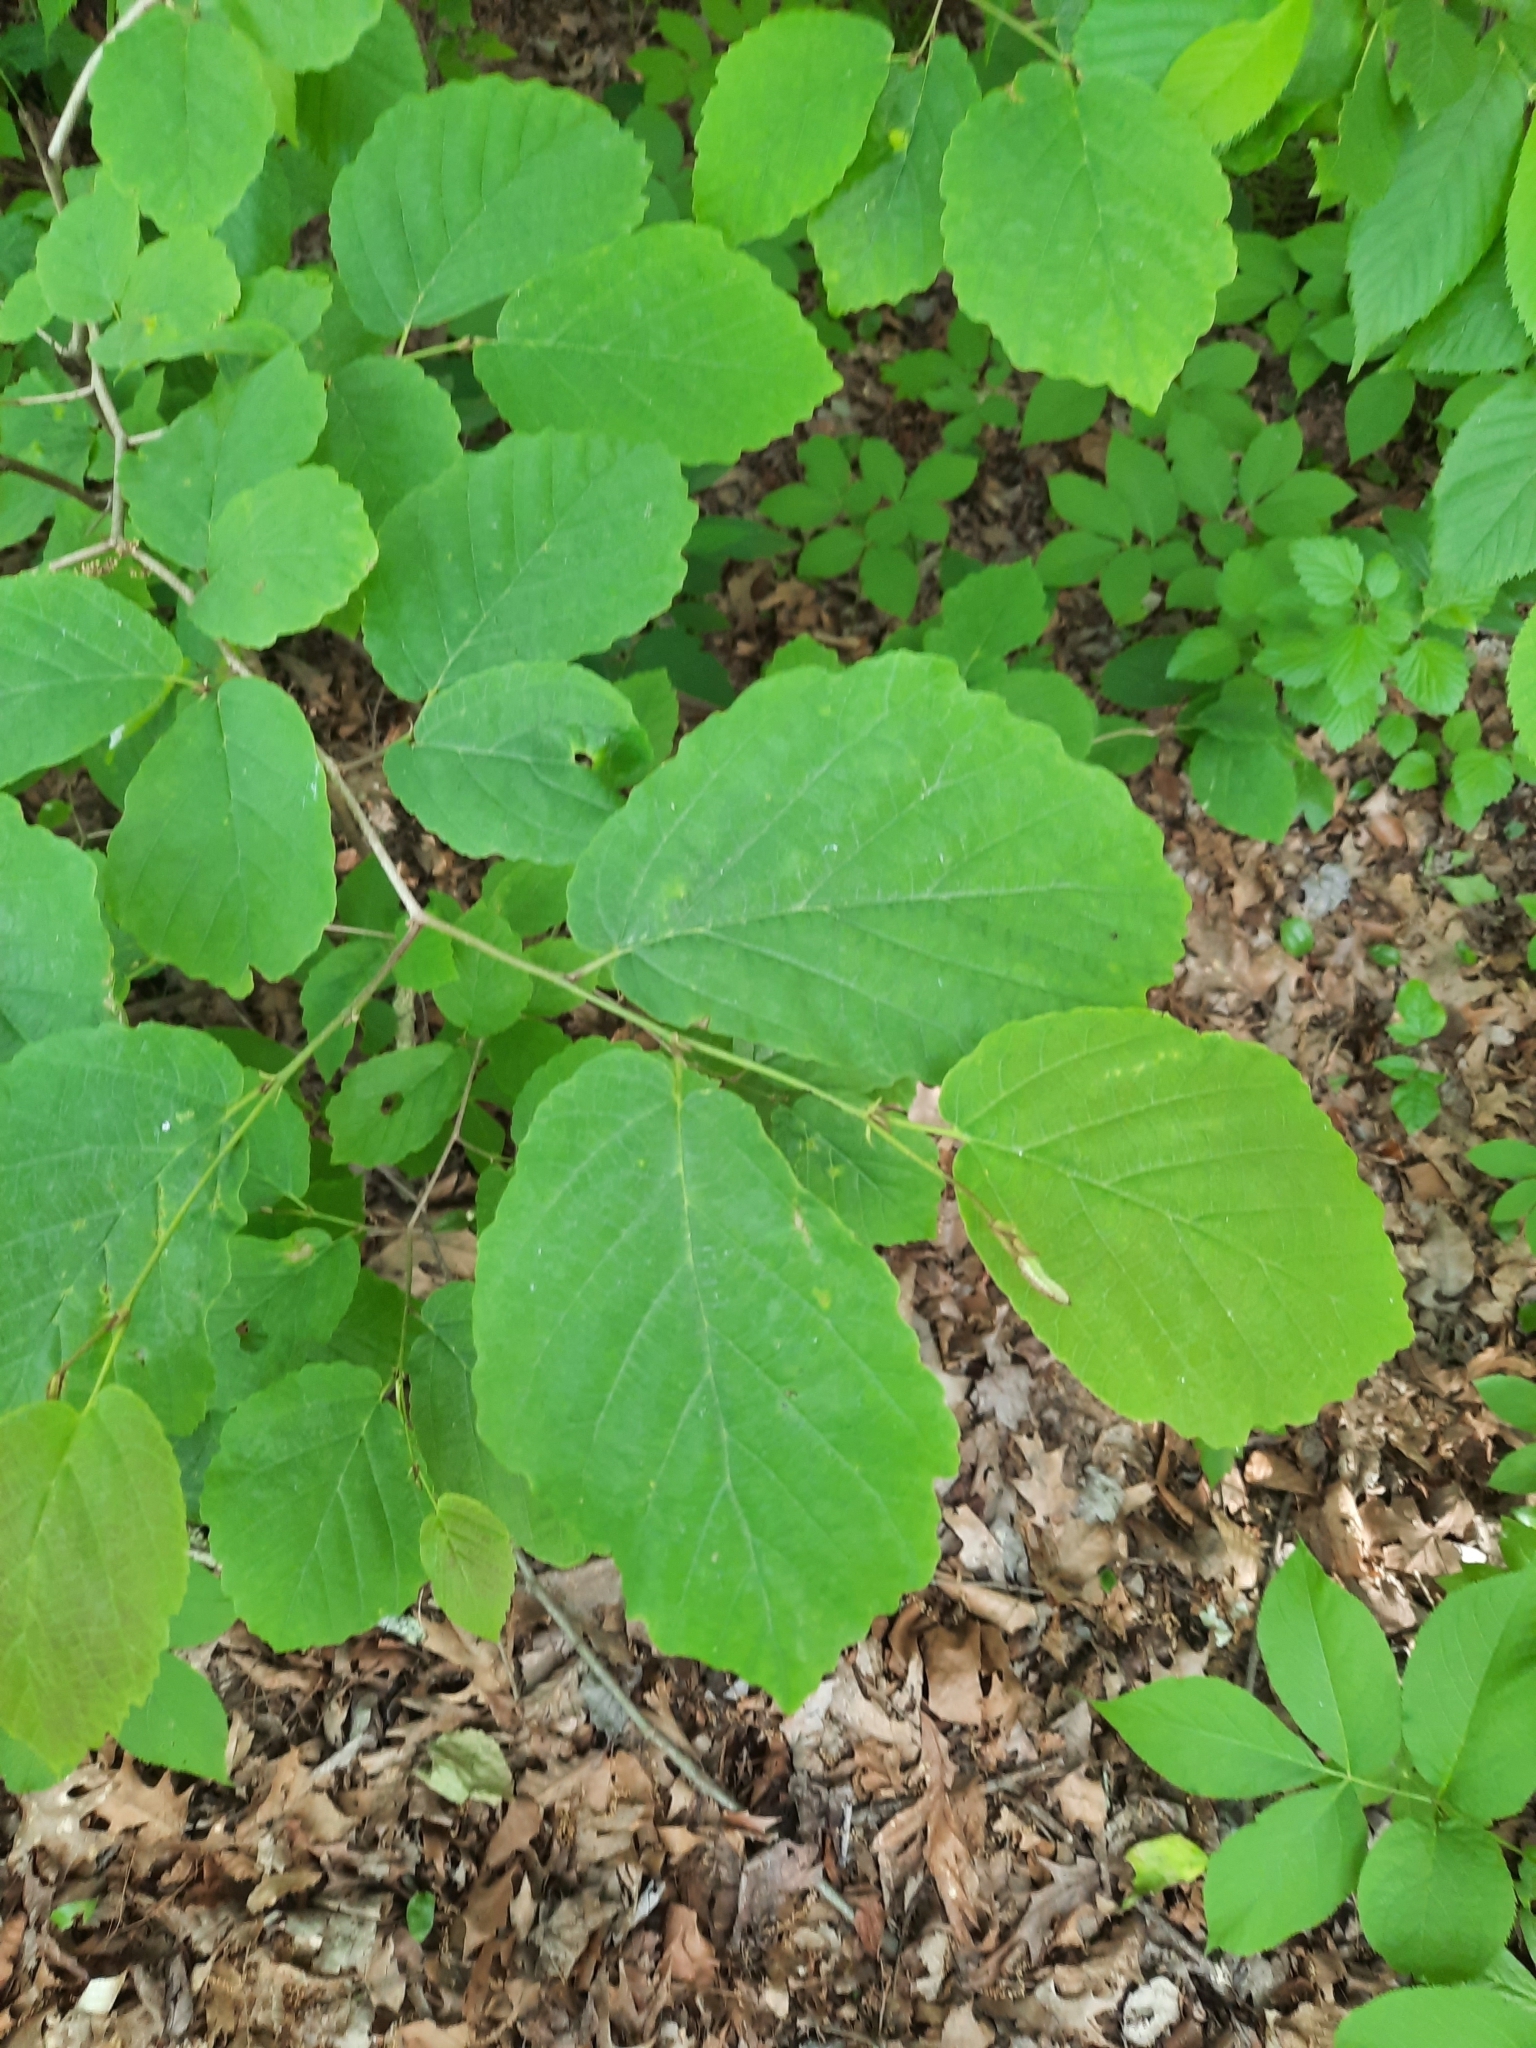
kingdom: Plantae
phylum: Tracheophyta
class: Magnoliopsida
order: Saxifragales
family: Hamamelidaceae
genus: Hamamelis
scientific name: Hamamelis virginiana
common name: Witch-hazel
